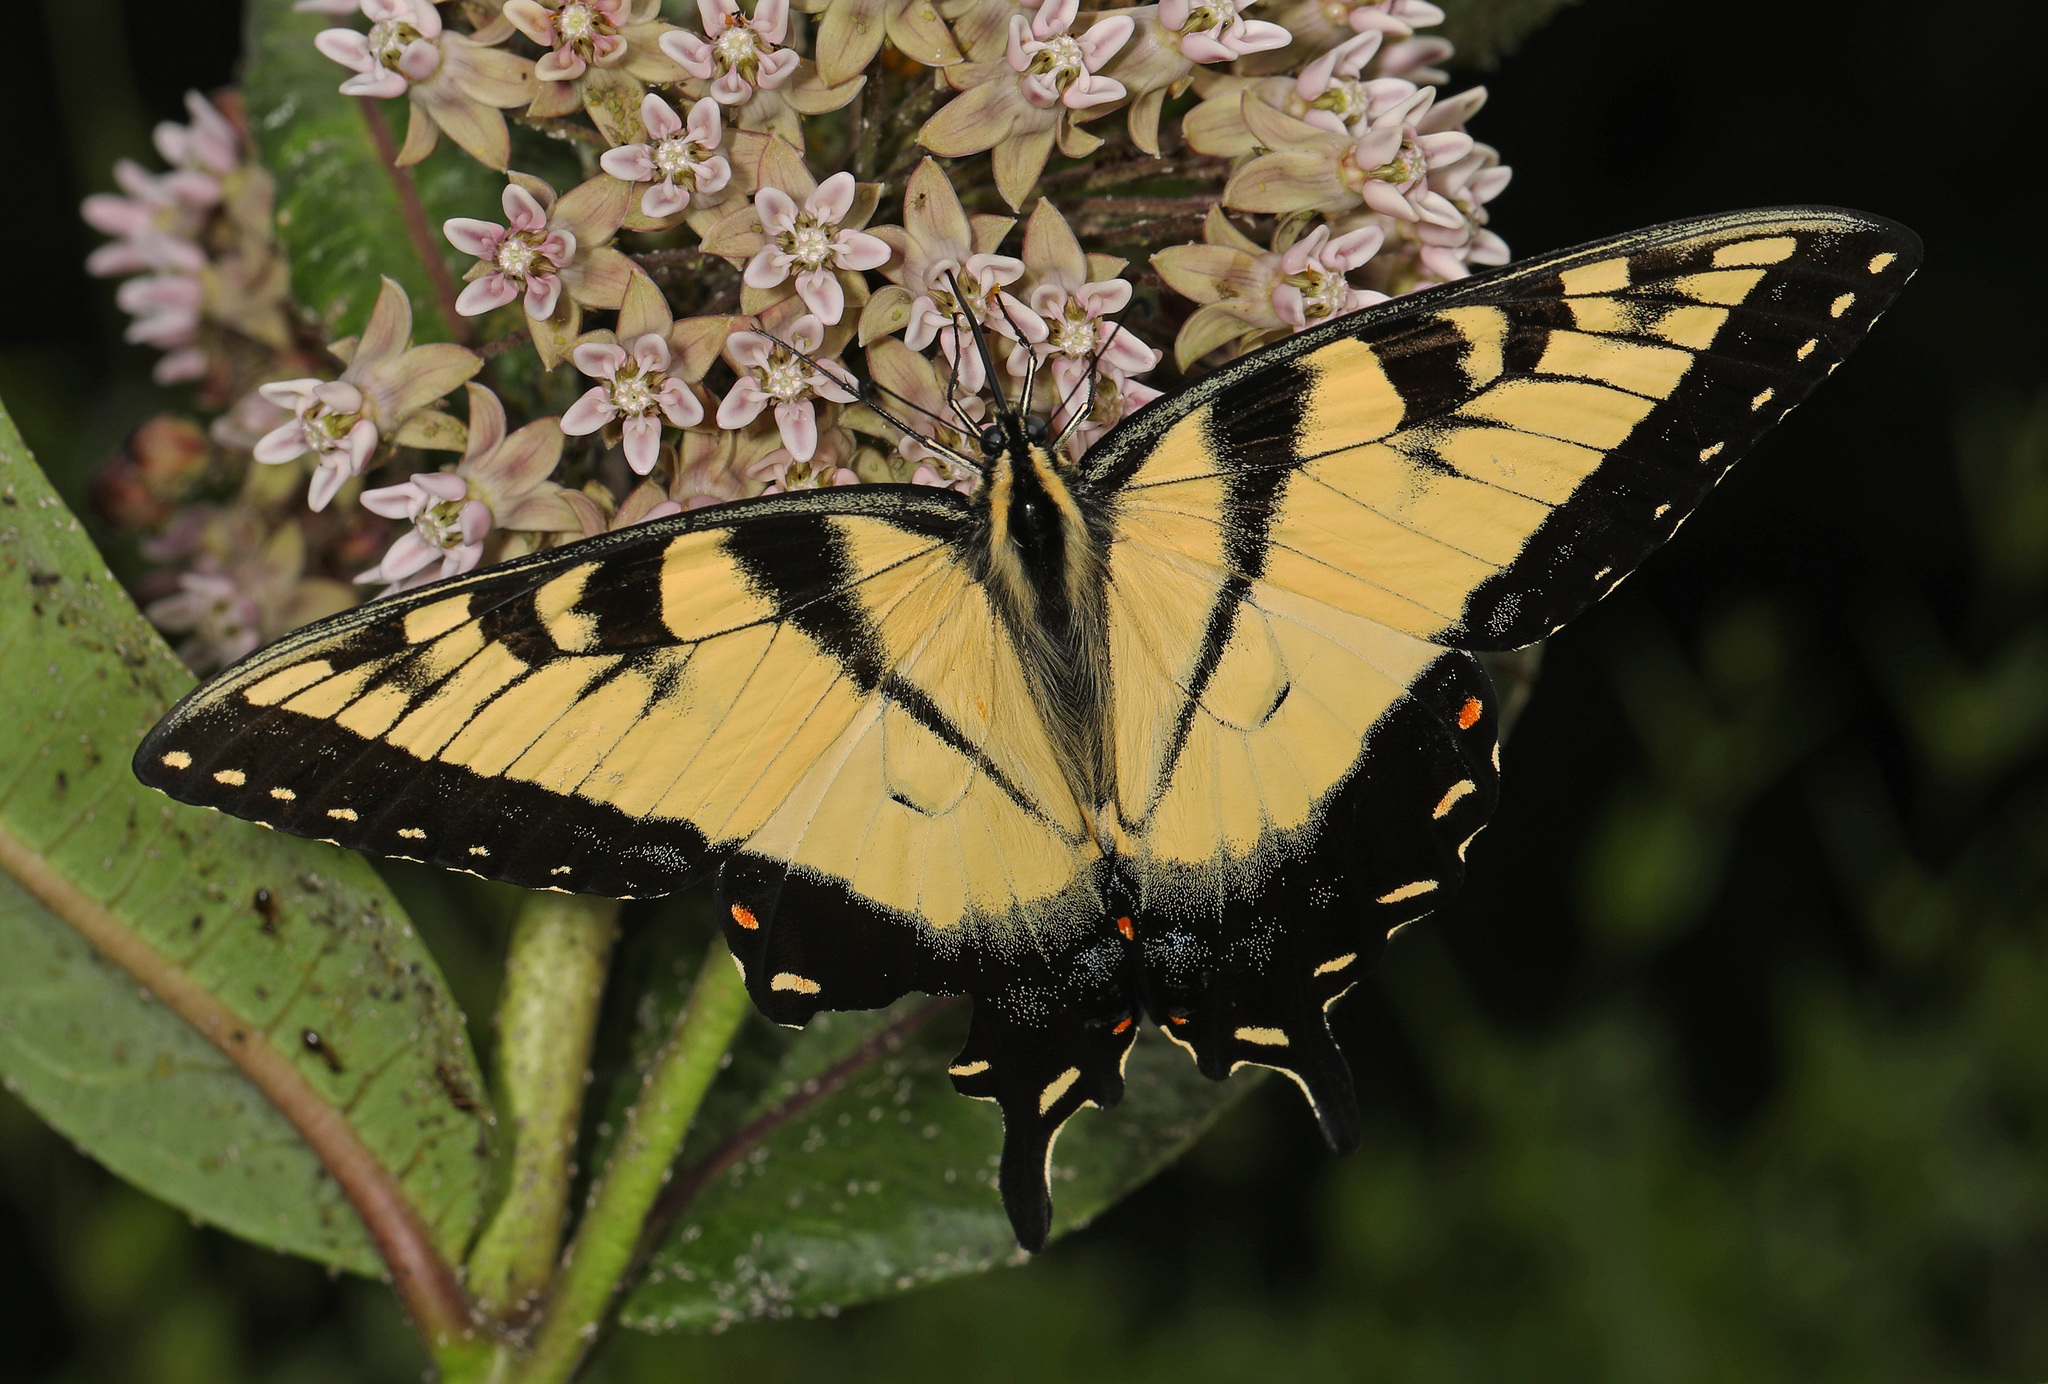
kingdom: Animalia
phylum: Arthropoda
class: Insecta
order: Lepidoptera
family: Papilionidae
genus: Papilio
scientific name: Papilio glaucus
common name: Tiger swallowtail
